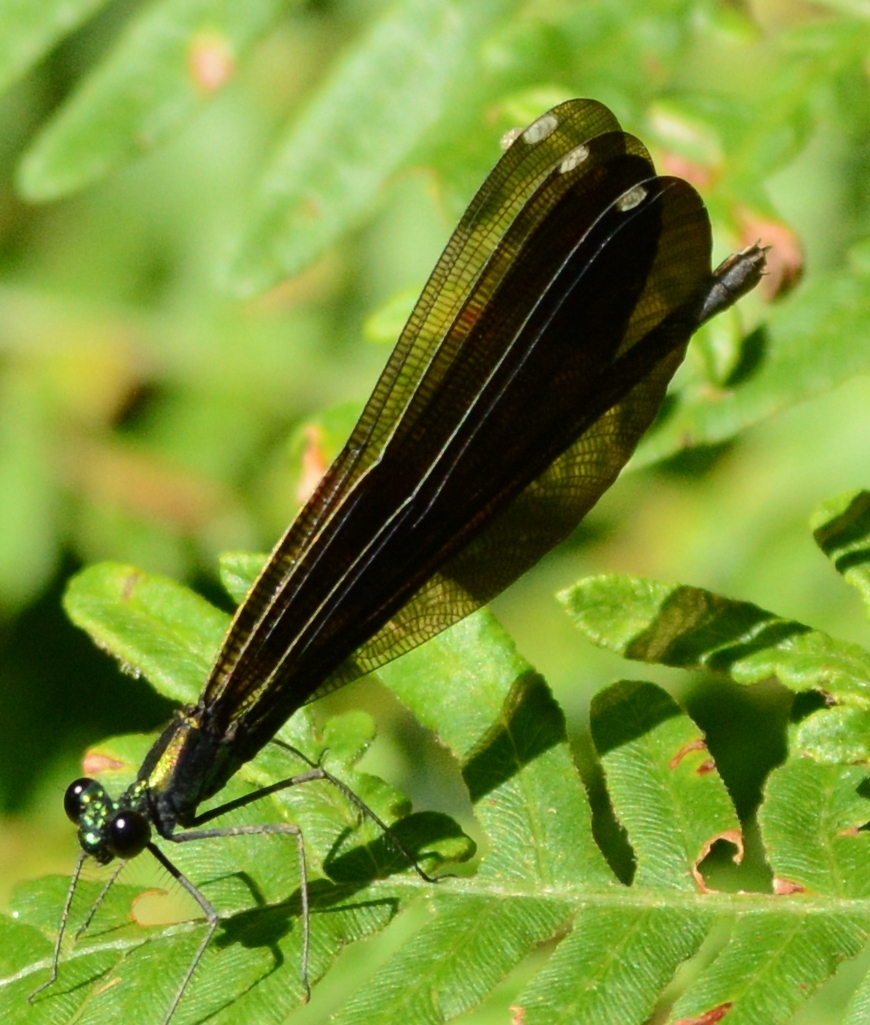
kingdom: Animalia
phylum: Arthropoda
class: Insecta
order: Odonata
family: Calopterygidae
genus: Calopteryx
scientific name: Calopteryx maculata
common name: Ebony jewelwing
